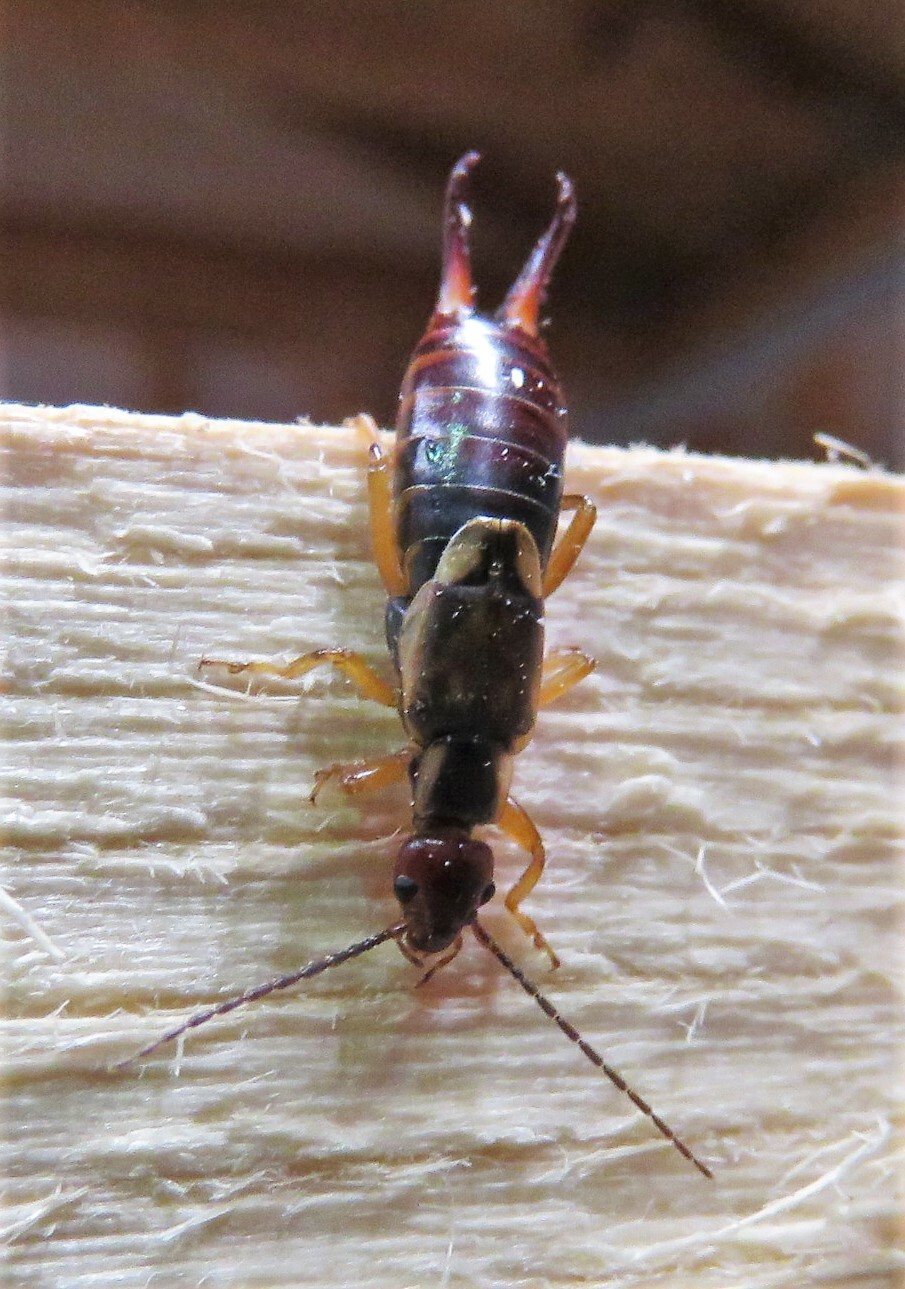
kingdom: Animalia
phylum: Arthropoda
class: Insecta
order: Dermaptera
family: Forficulidae
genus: Forficula
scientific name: Forficula
